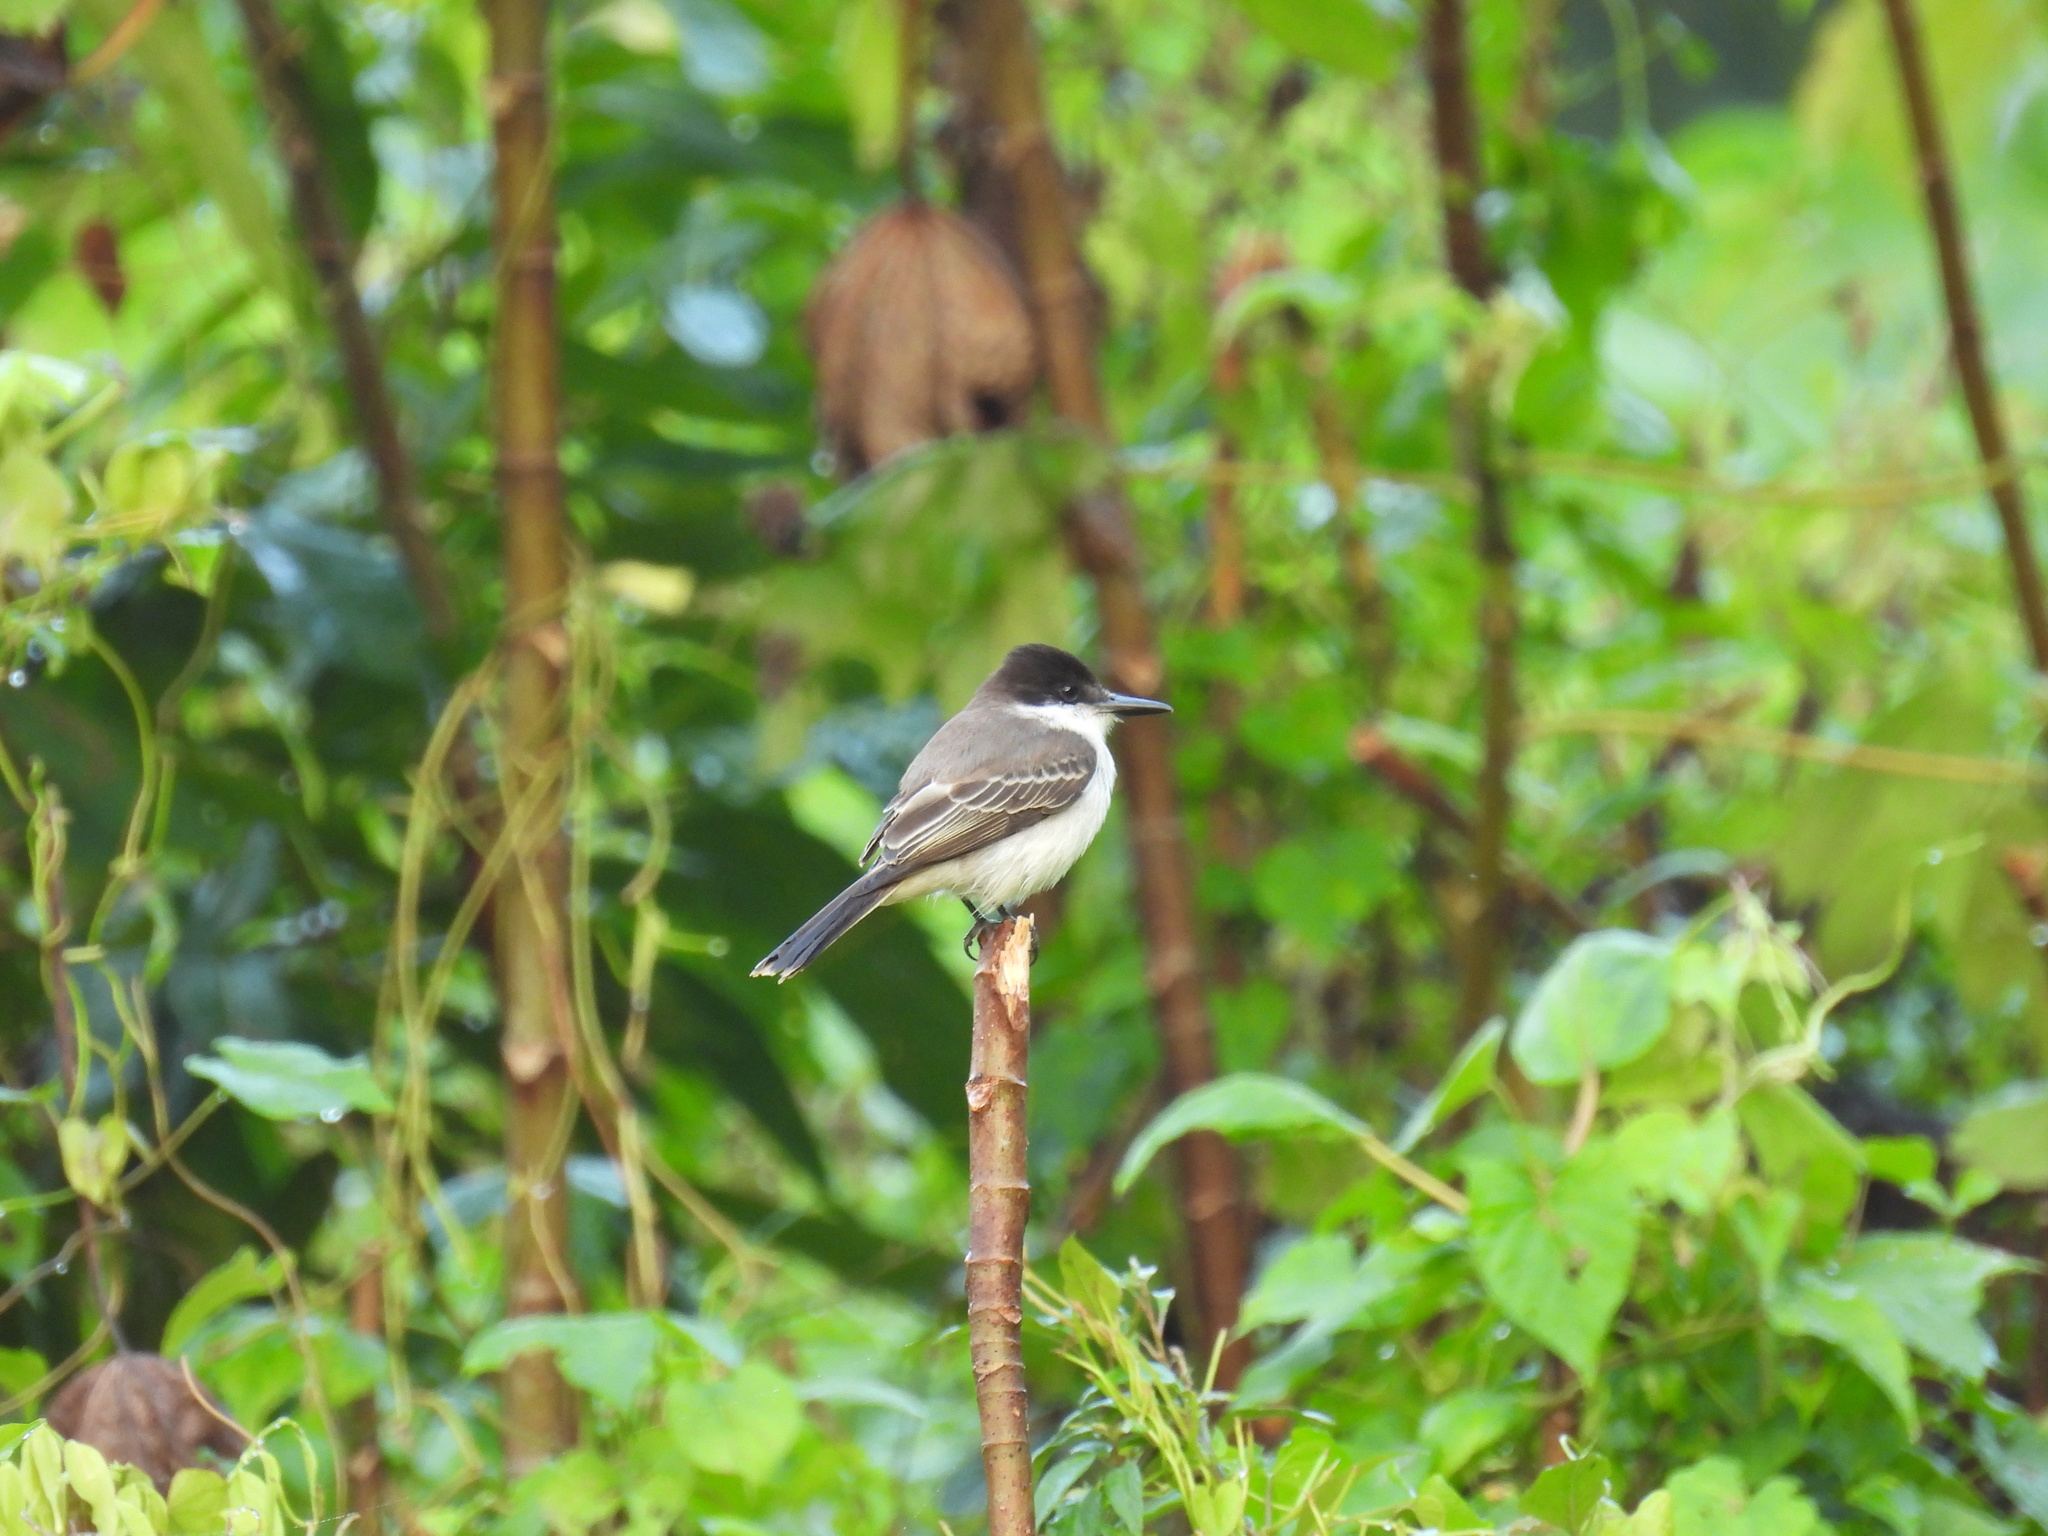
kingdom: Animalia
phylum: Chordata
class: Aves
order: Passeriformes
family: Tyrannidae
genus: Tyrannus
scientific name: Tyrannus caudifasciatus
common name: Loggerhead kingbird
